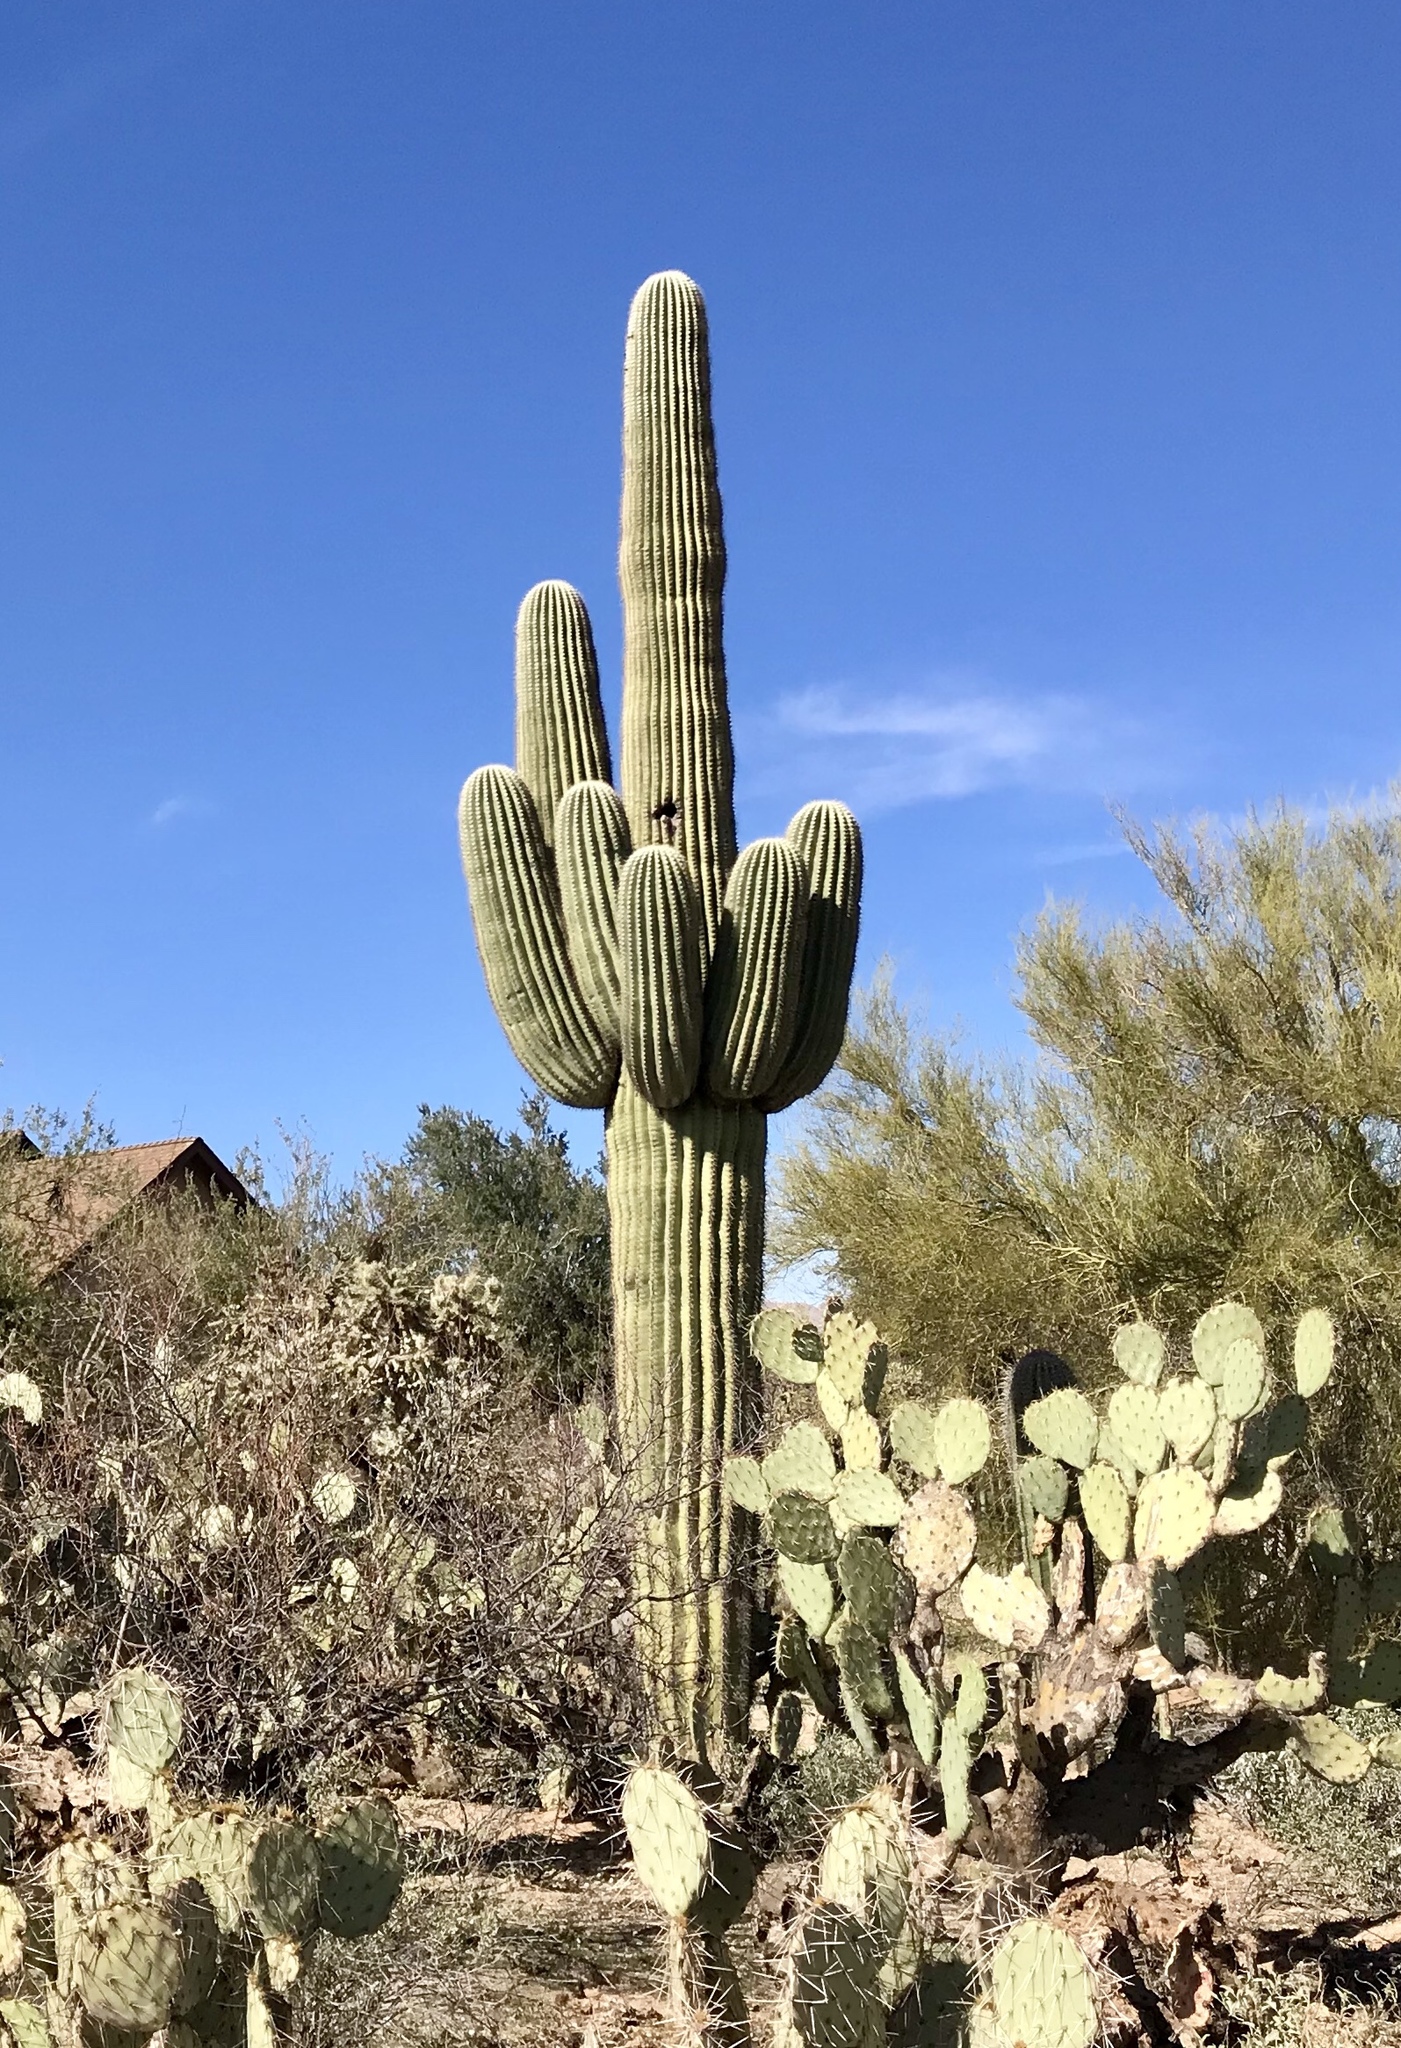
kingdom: Plantae
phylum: Tracheophyta
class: Magnoliopsida
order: Caryophyllales
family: Cactaceae
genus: Carnegiea
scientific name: Carnegiea gigantea
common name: Saguaro
